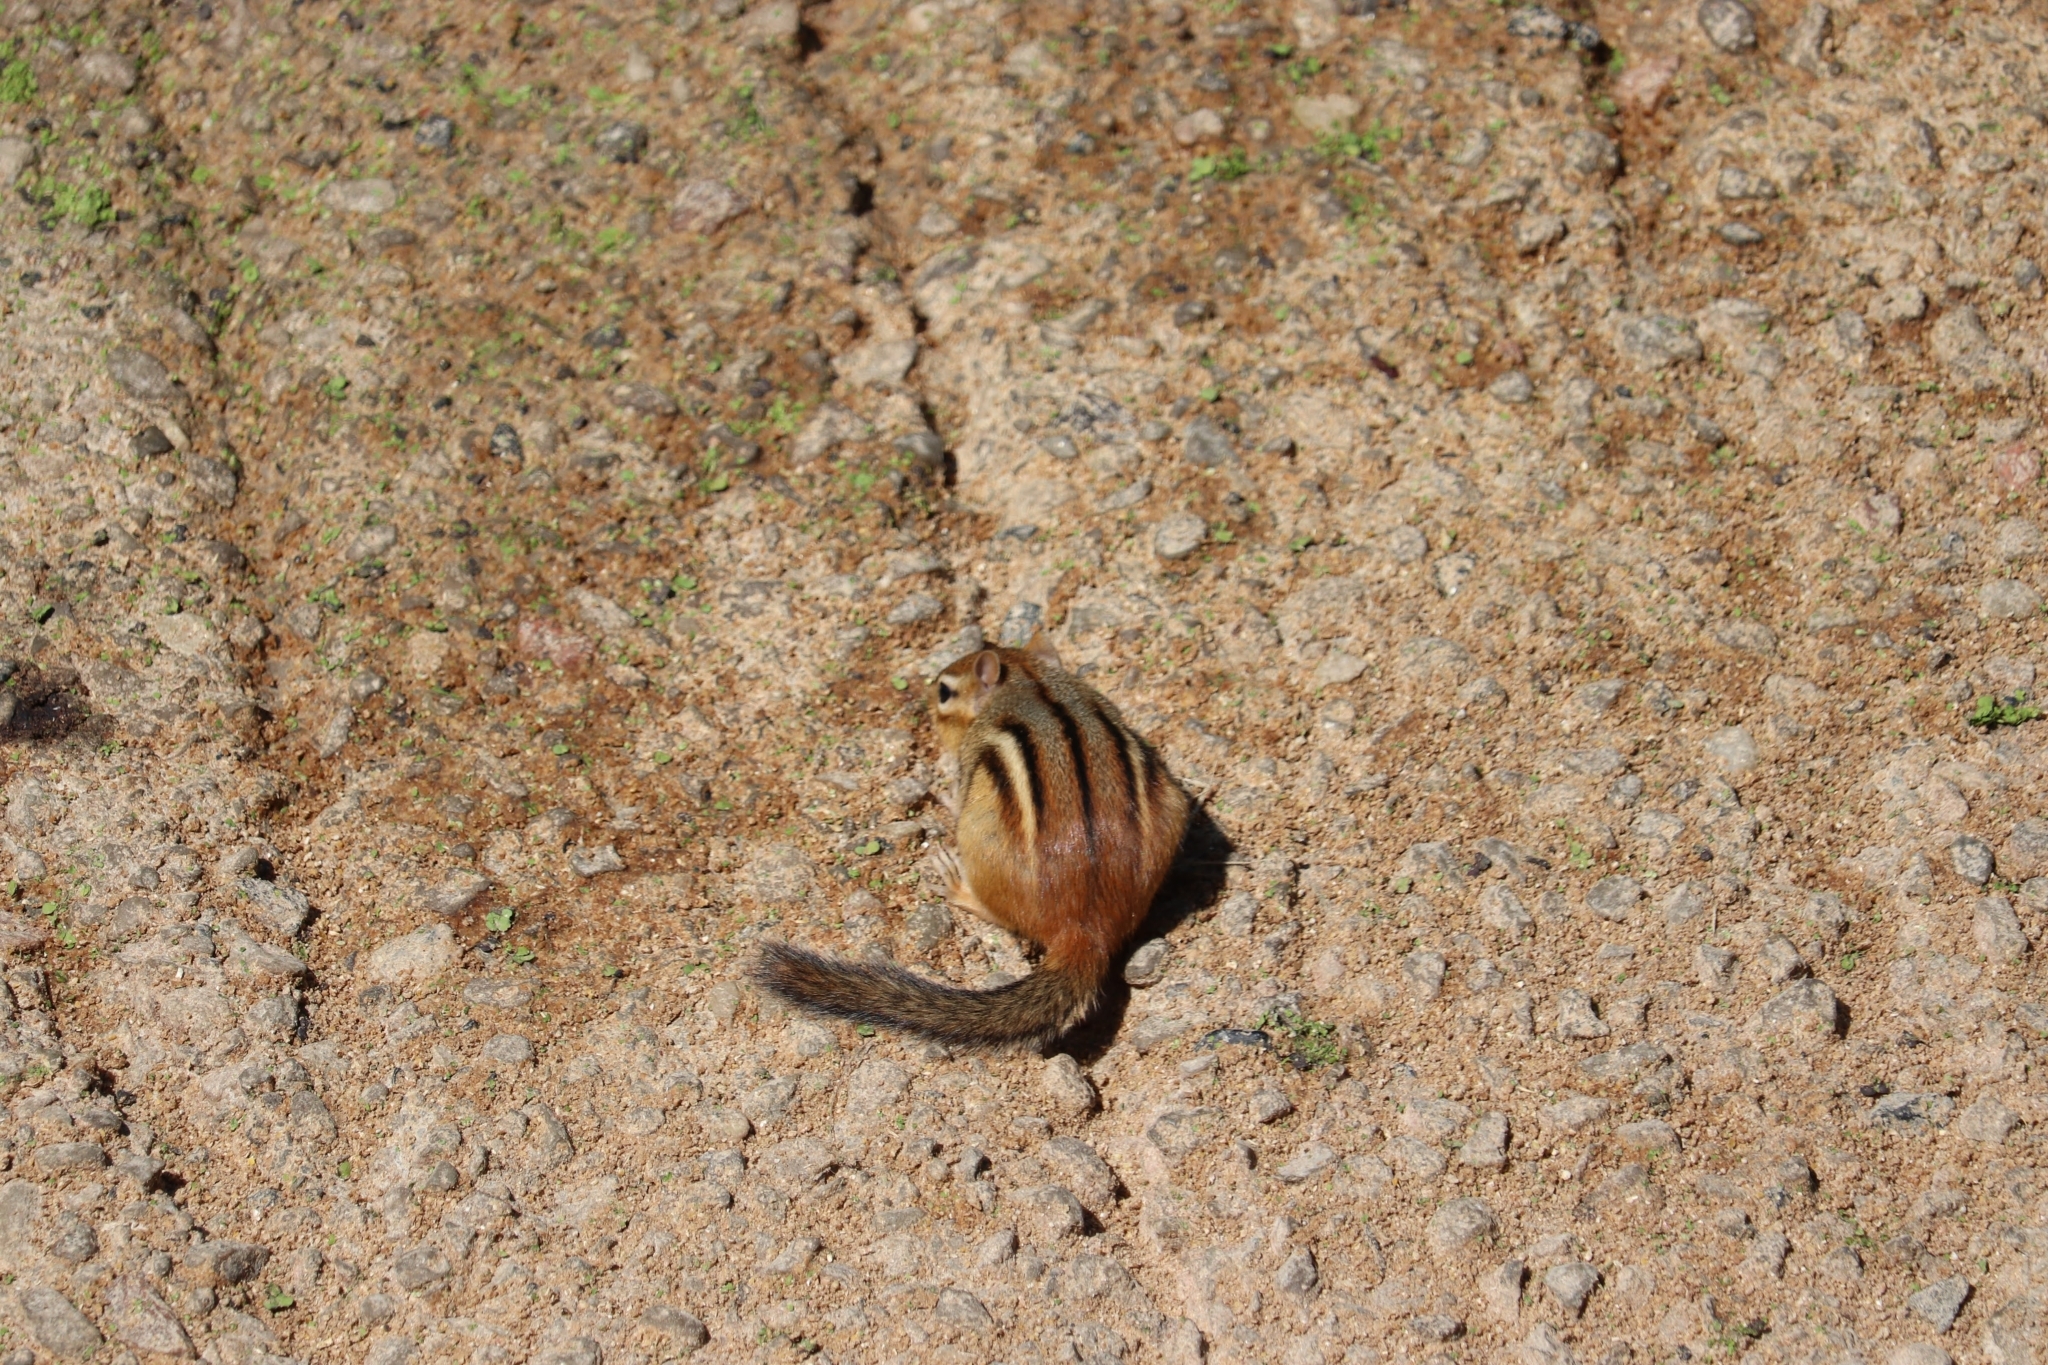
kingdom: Animalia
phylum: Chordata
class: Mammalia
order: Rodentia
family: Sciuridae
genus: Tamias
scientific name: Tamias striatus
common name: Eastern chipmunk
